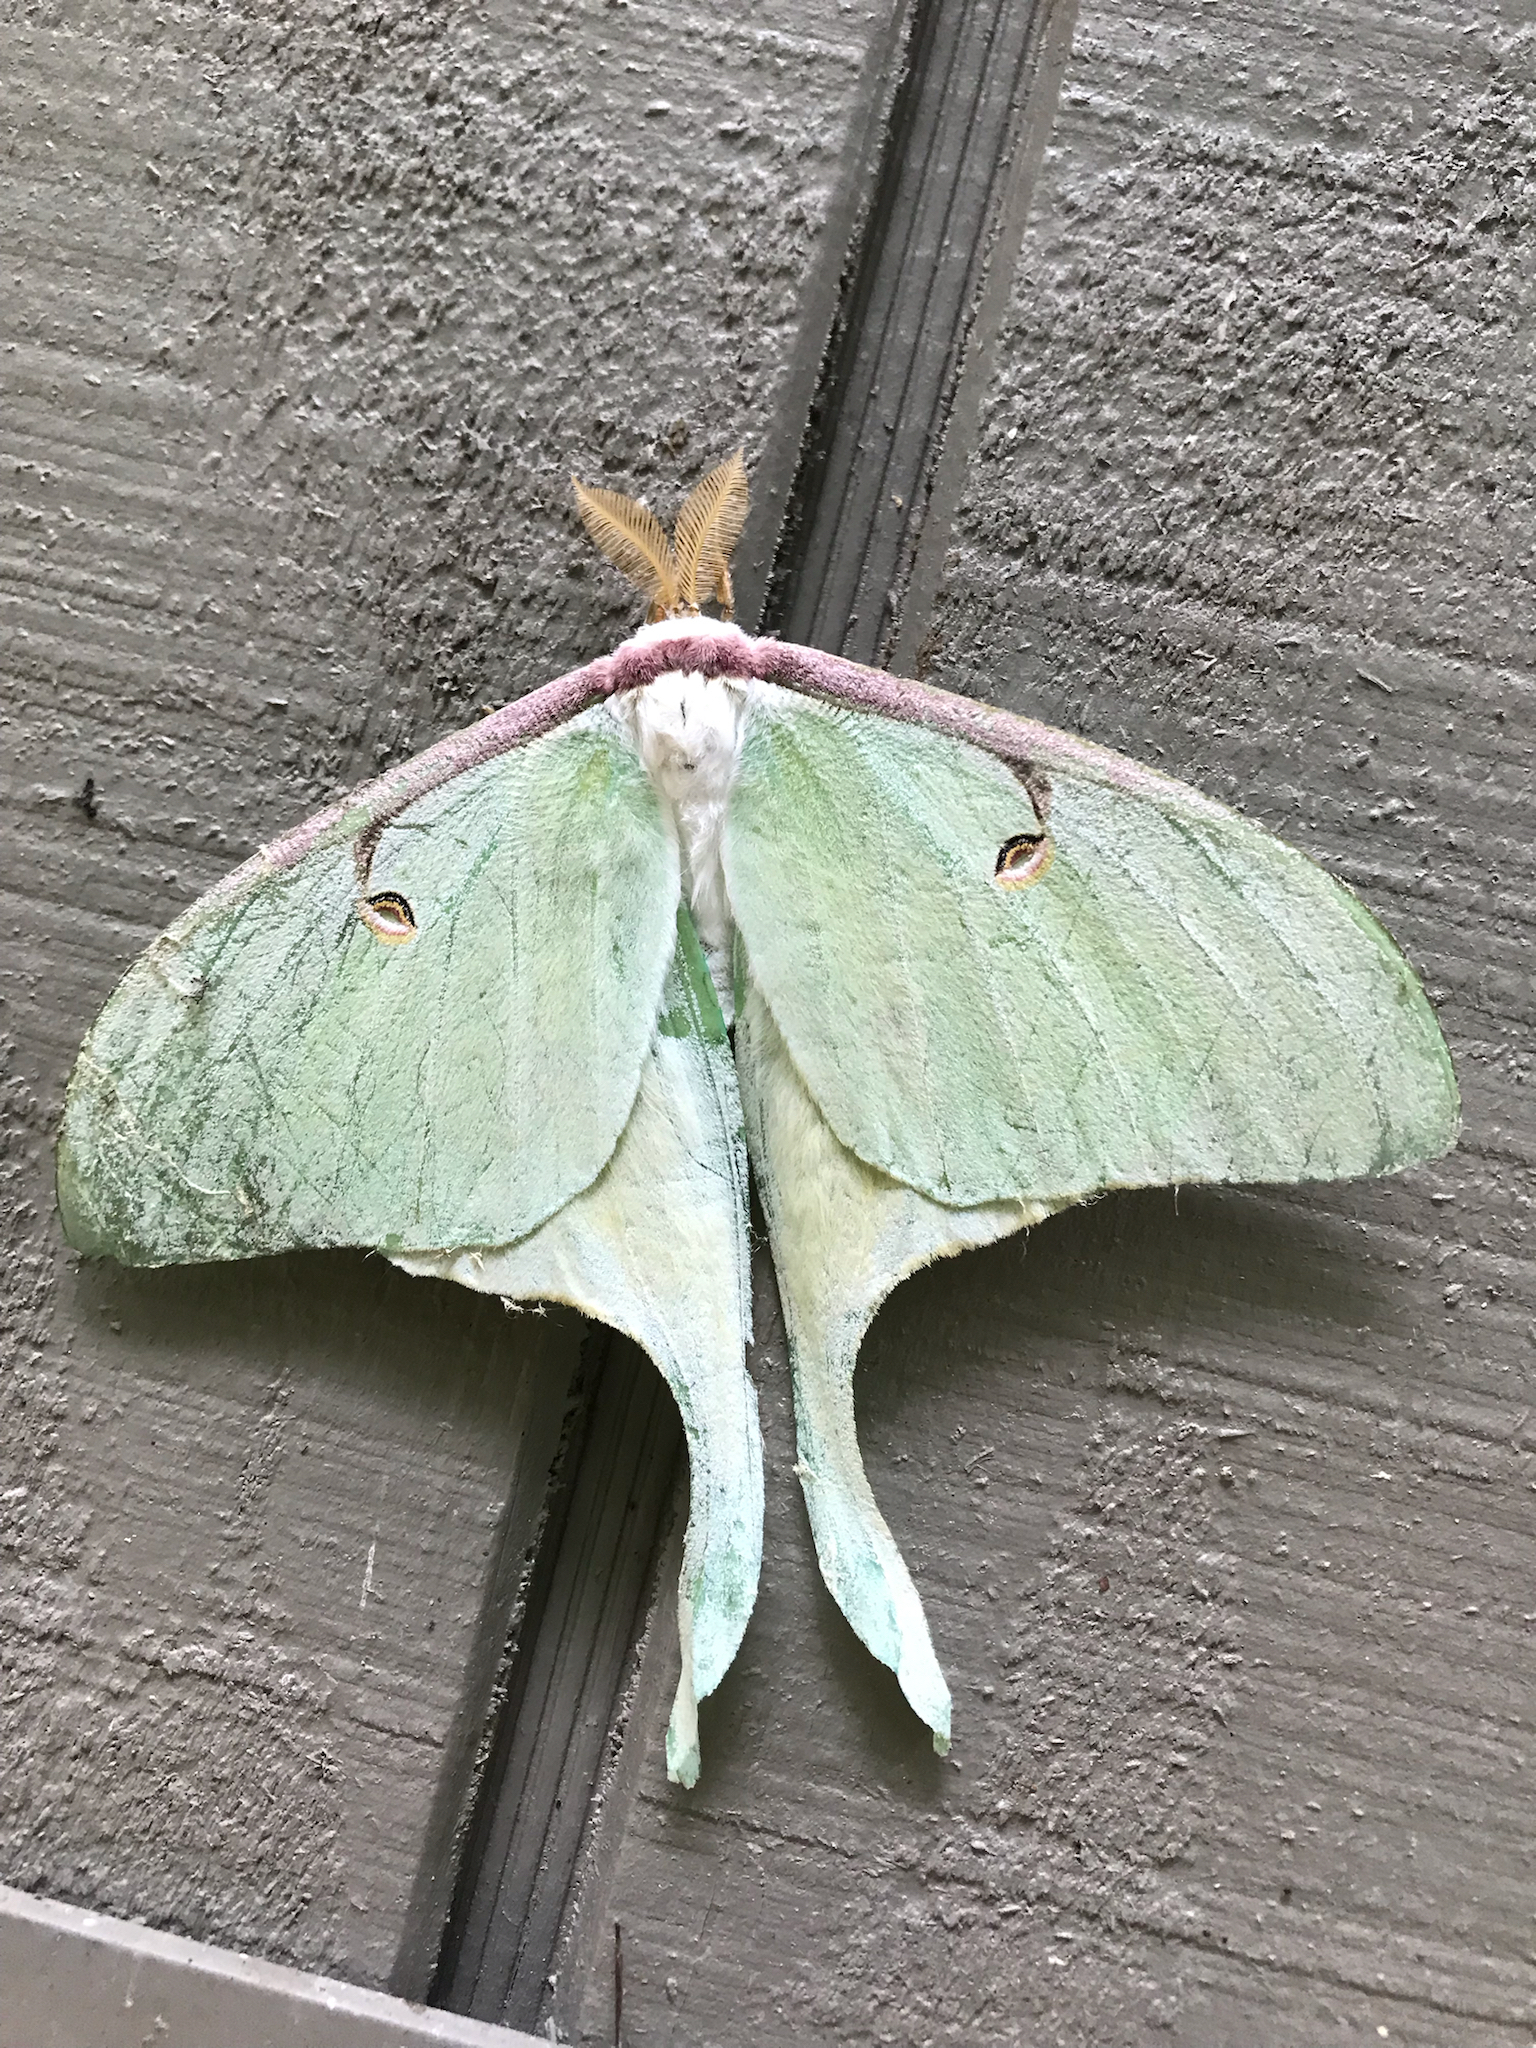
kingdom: Animalia
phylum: Arthropoda
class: Insecta
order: Lepidoptera
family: Saturniidae
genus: Actias
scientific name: Actias luna
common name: Luna moth
